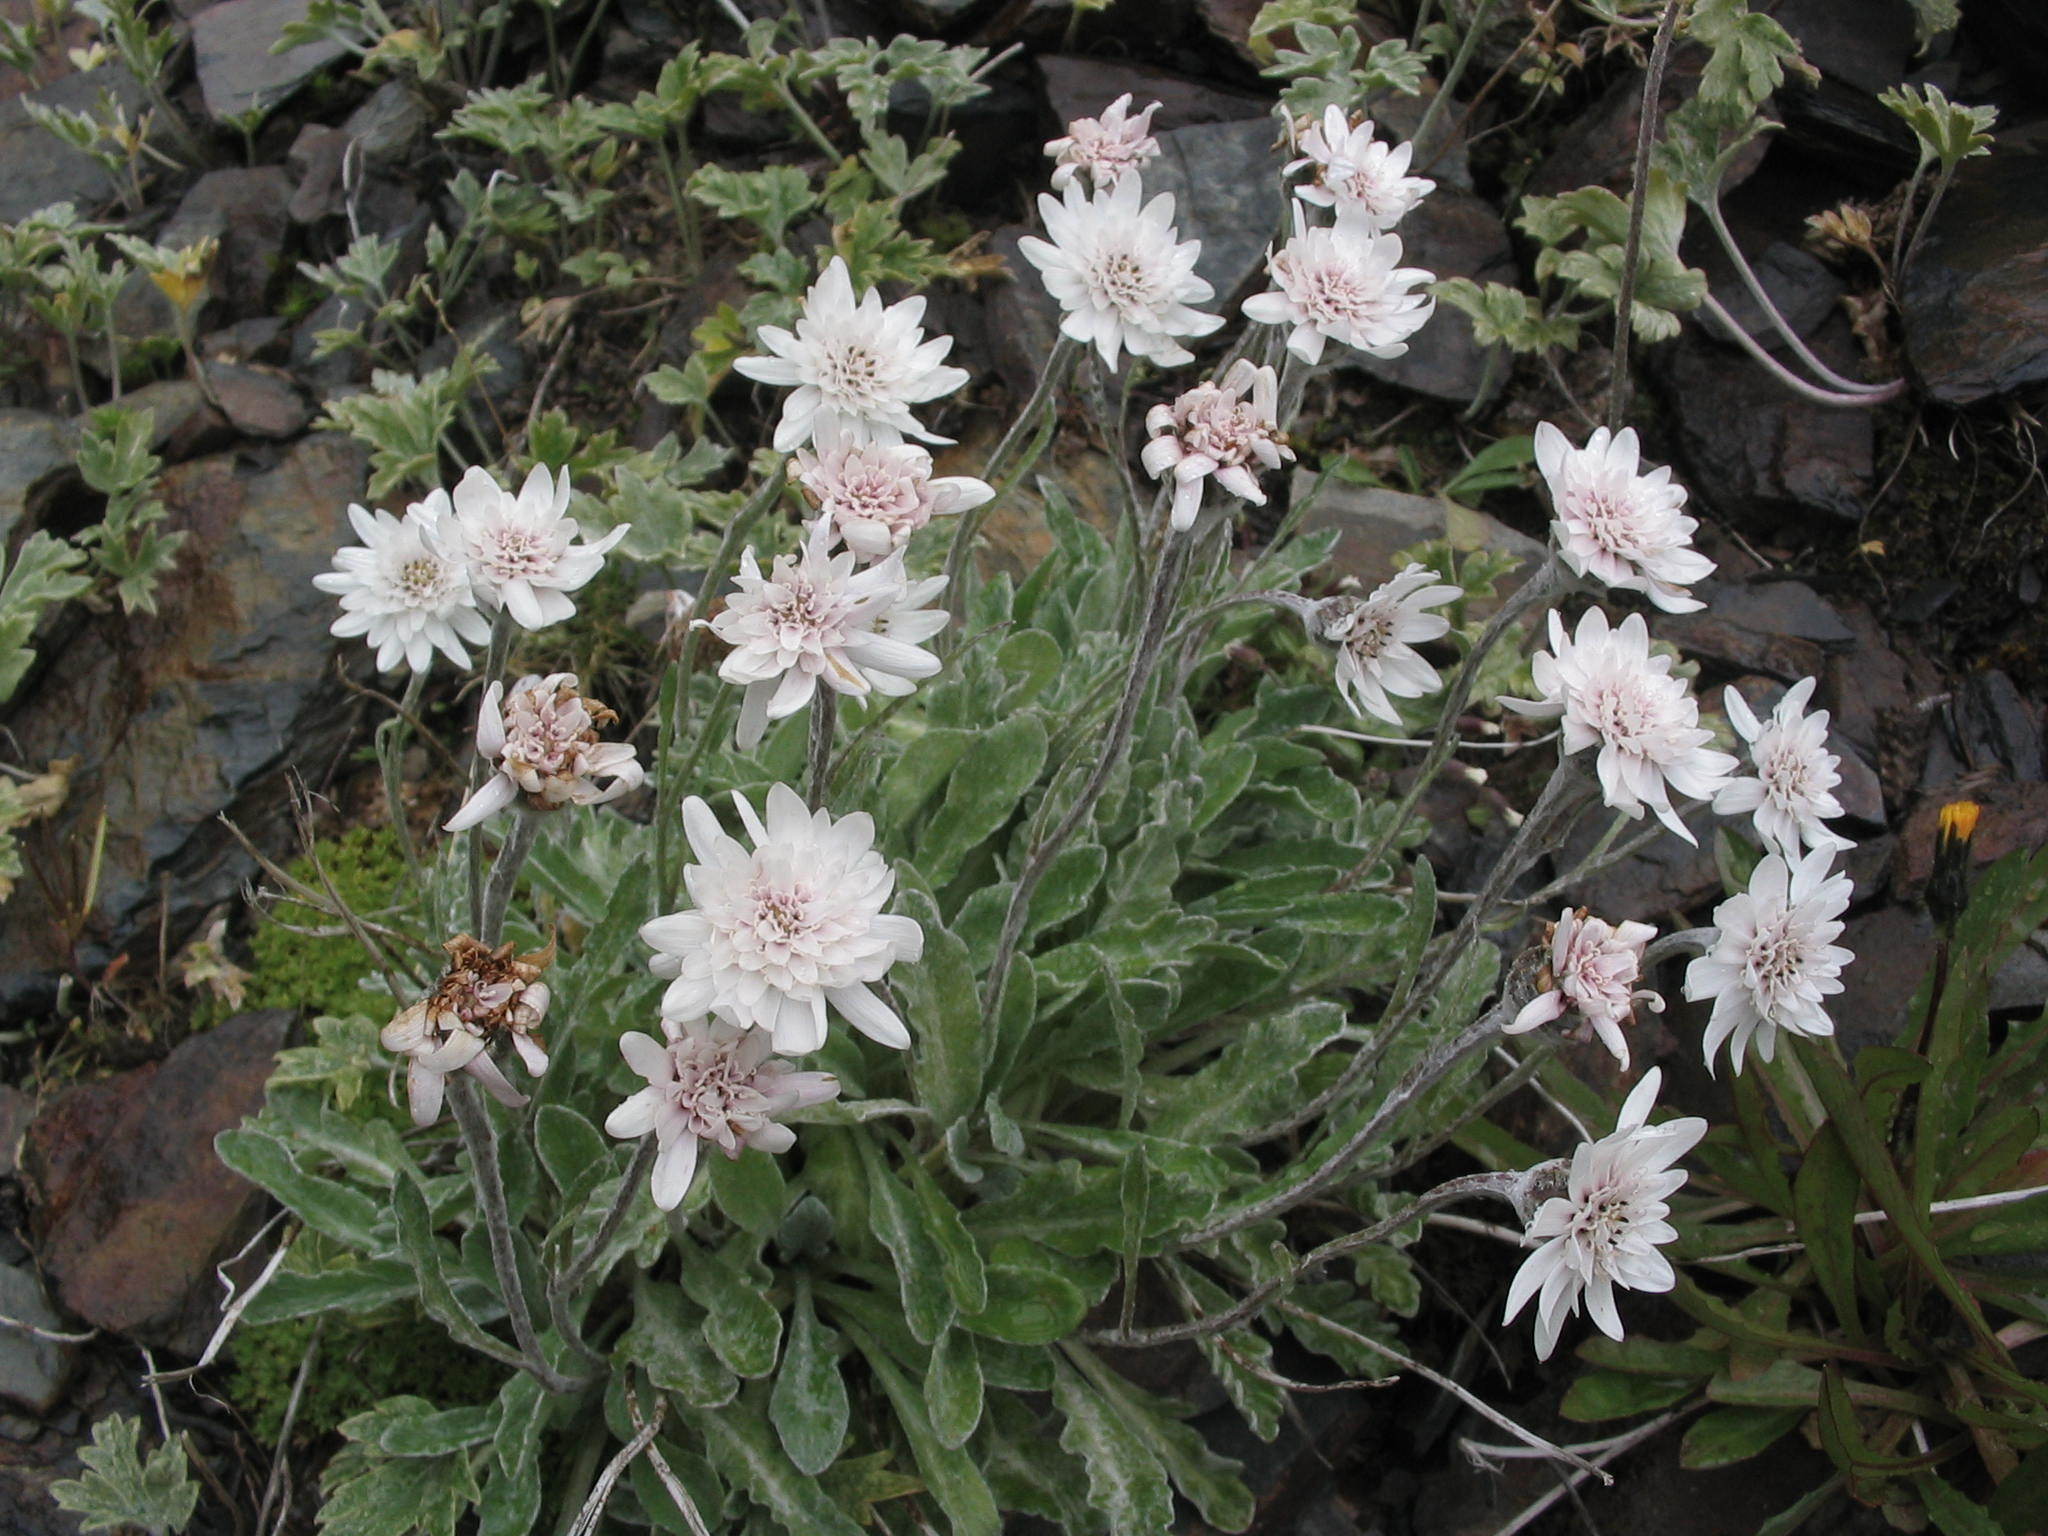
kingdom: Plantae
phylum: Tracheophyta
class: Magnoliopsida
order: Asterales
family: Asteraceae
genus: Leucheria
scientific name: Leucheria hahnii
